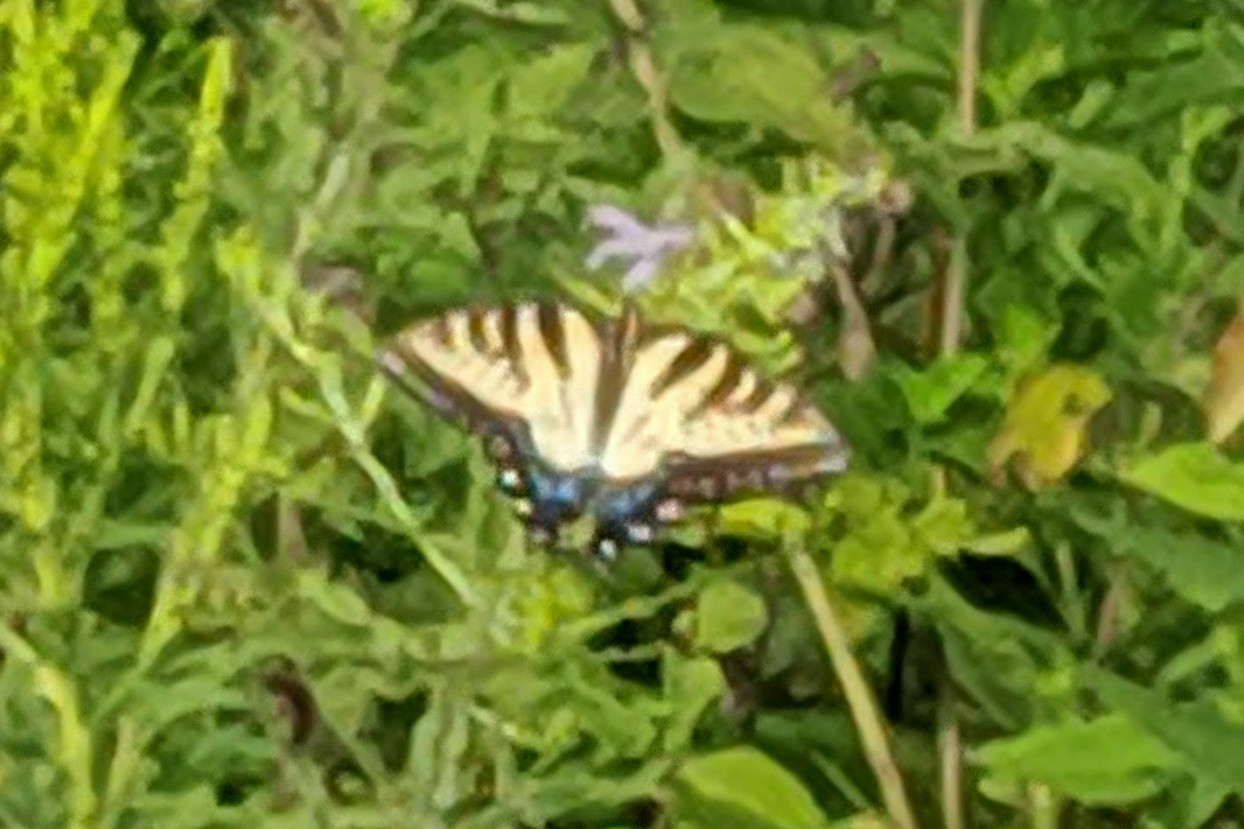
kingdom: Animalia
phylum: Arthropoda
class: Insecta
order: Lepidoptera
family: Papilionidae
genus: Papilio
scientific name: Papilio glaucus
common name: Tiger swallowtail
